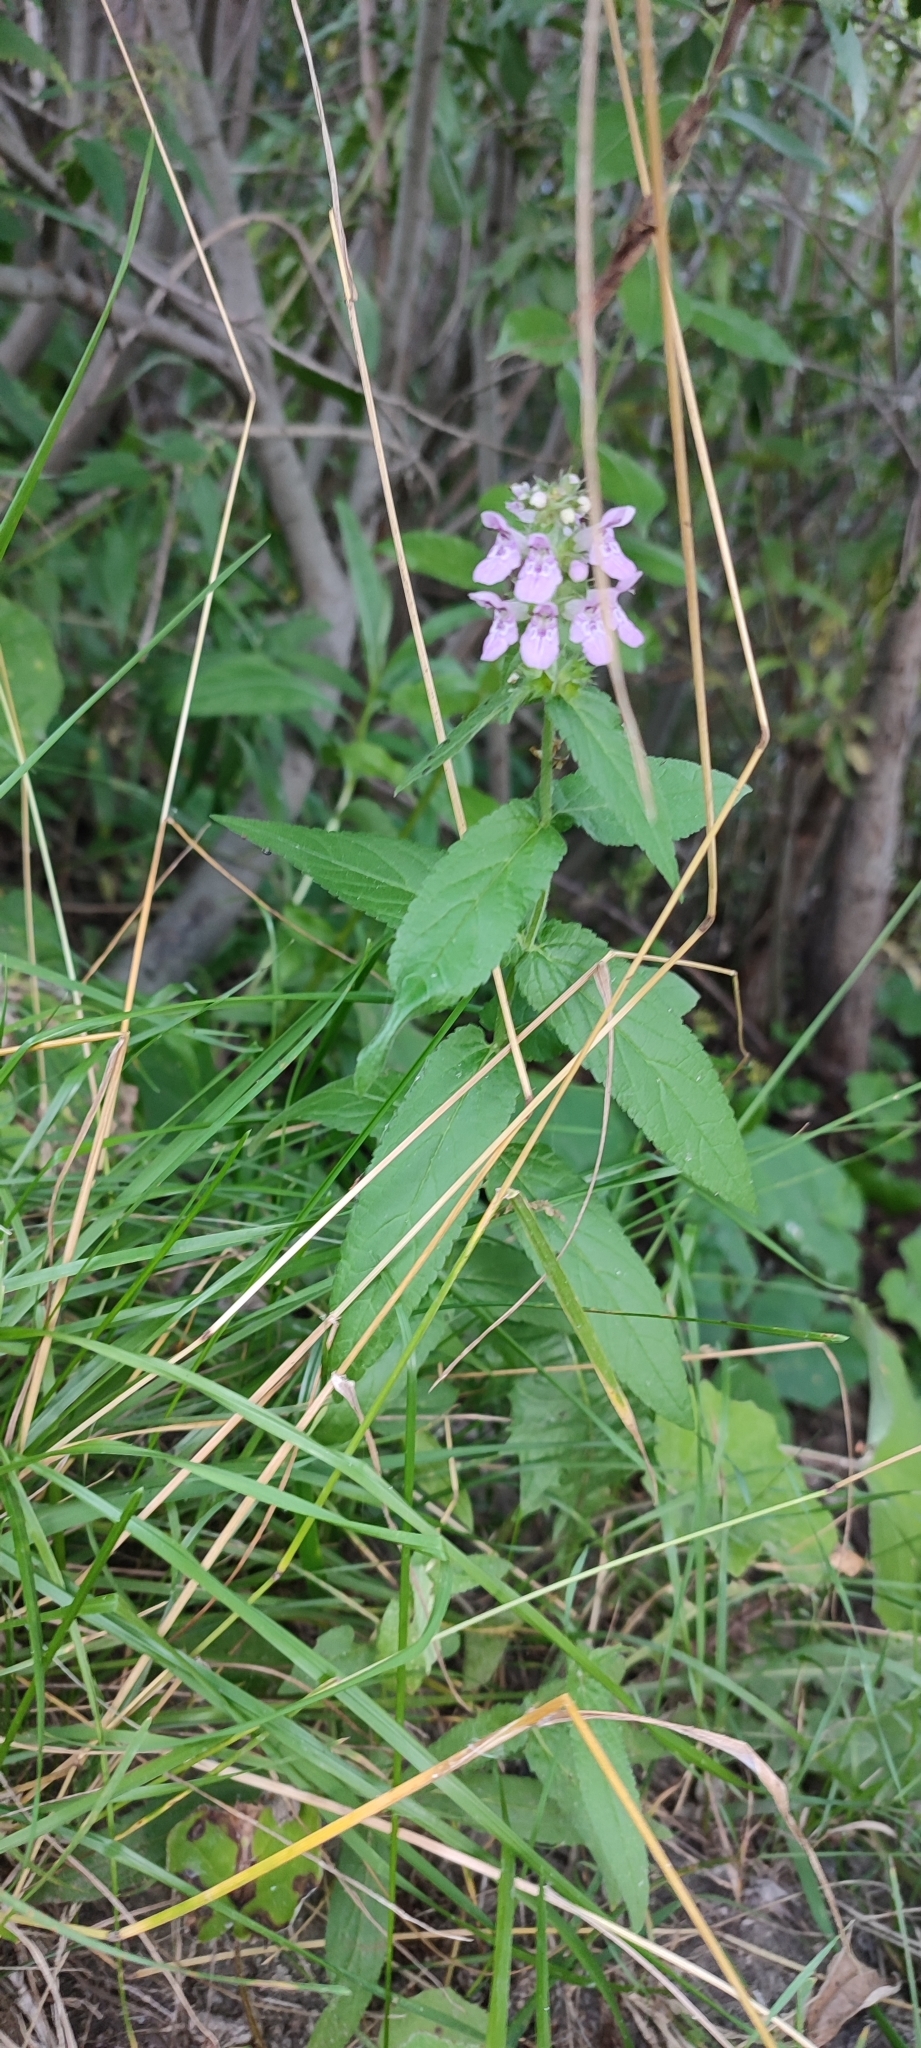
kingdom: Plantae
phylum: Tracheophyta
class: Magnoliopsida
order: Lamiales
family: Lamiaceae
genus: Stachys
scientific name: Stachys palustris
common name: Marsh woundwort
